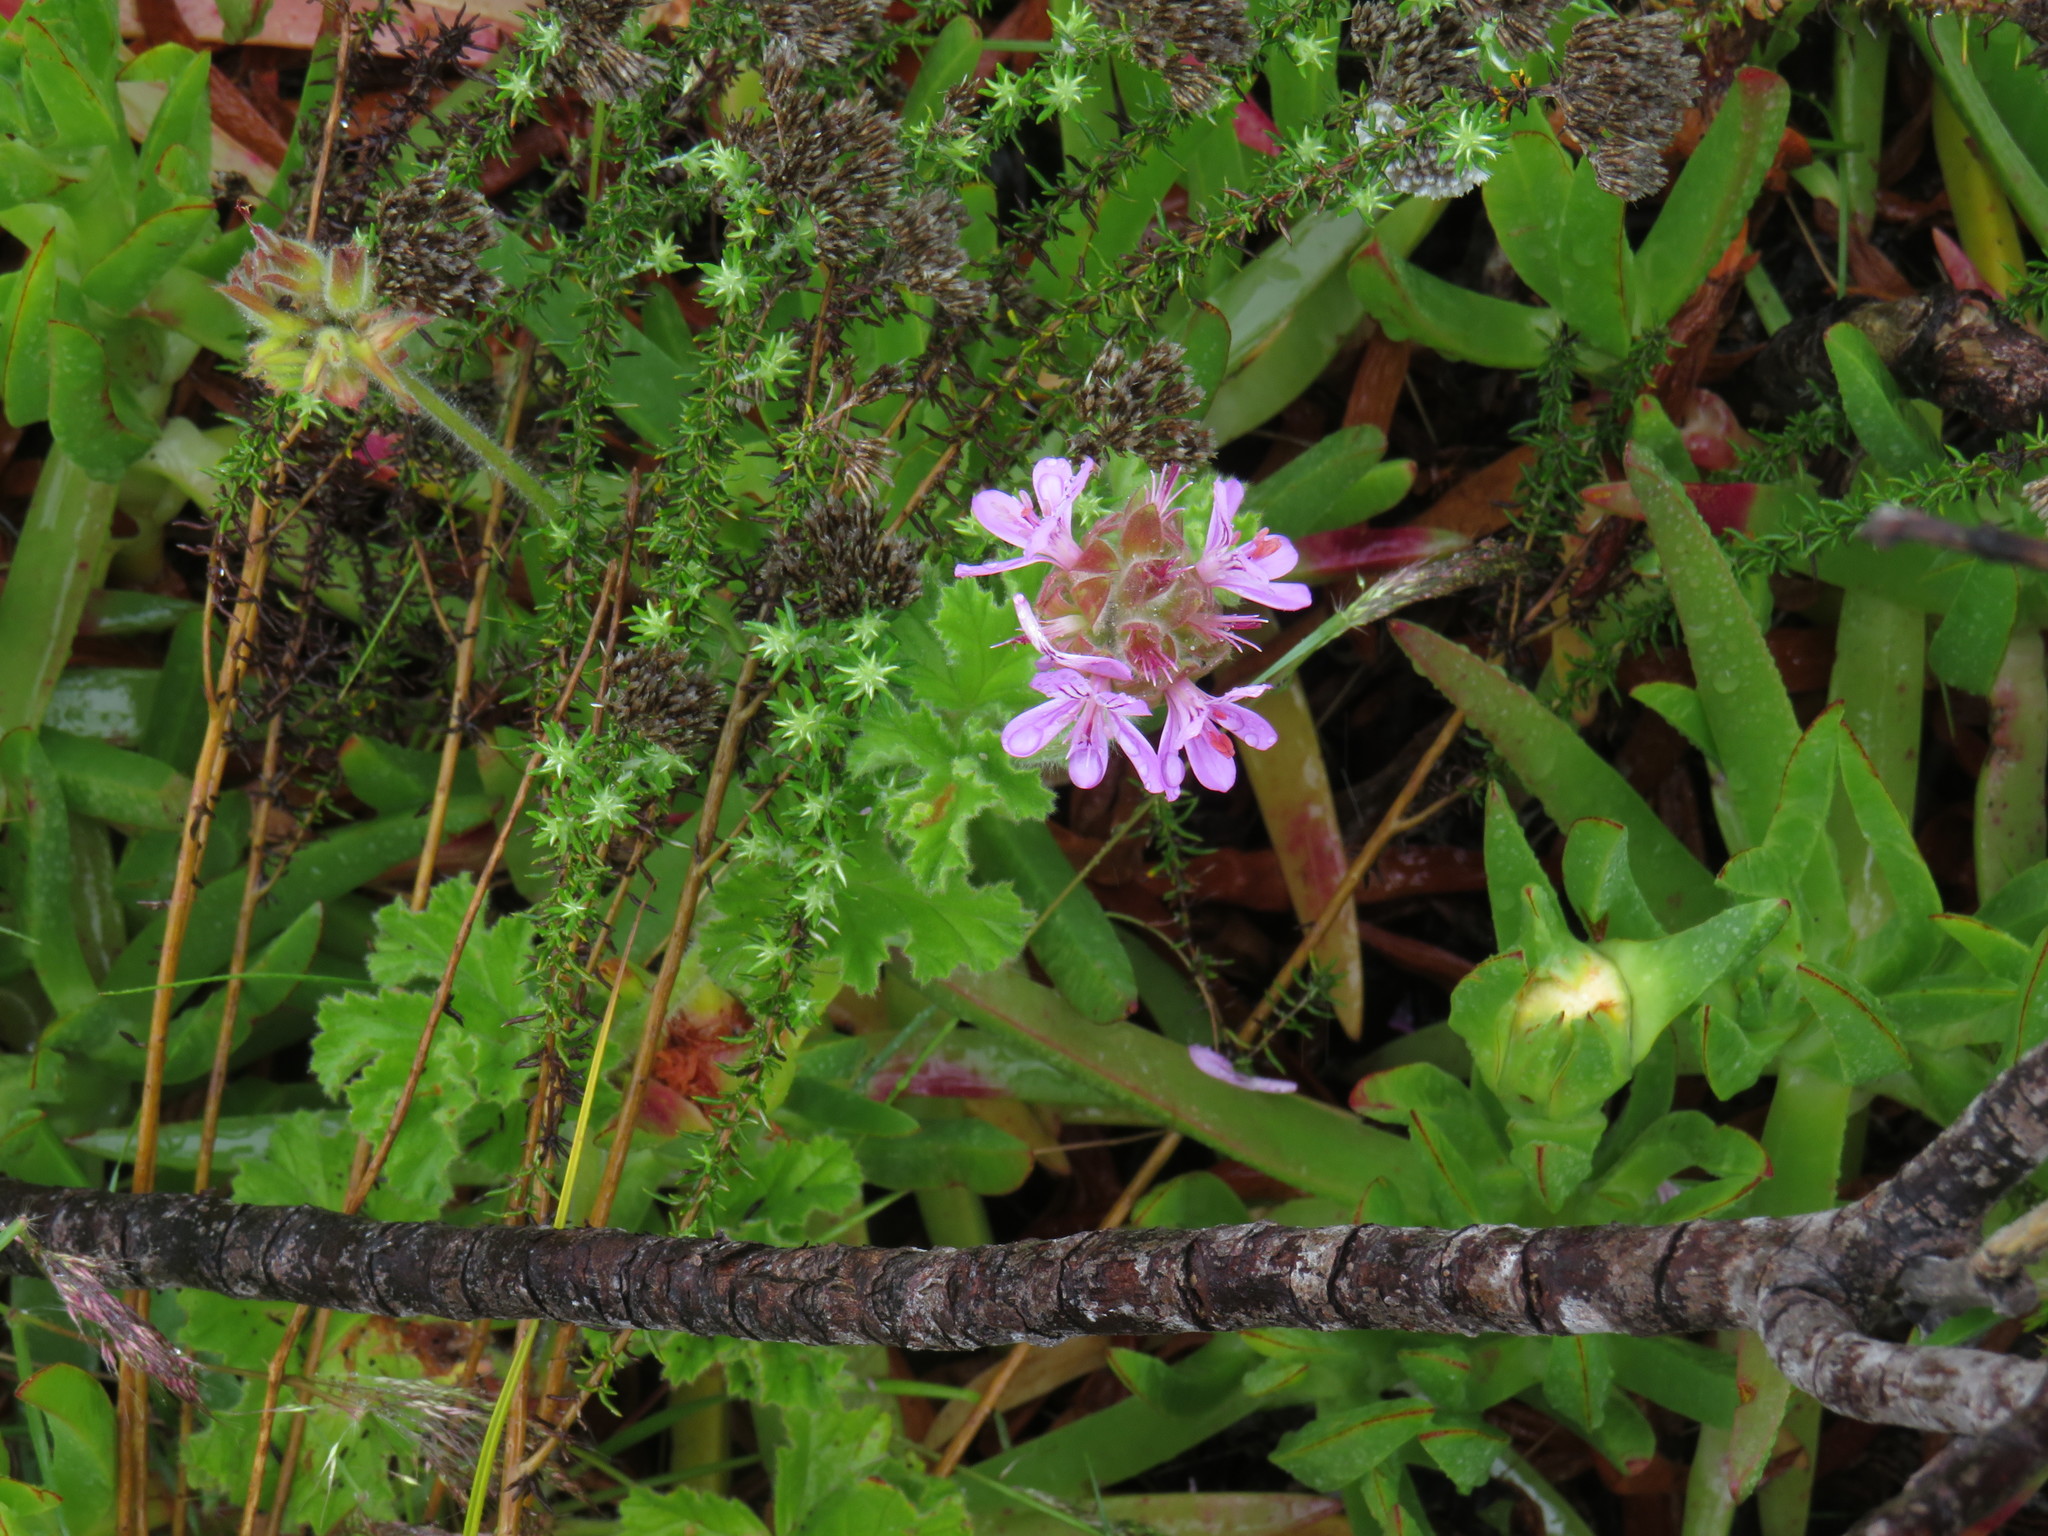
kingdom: Plantae
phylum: Tracheophyta
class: Magnoliopsida
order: Geraniales
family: Geraniaceae
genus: Pelargonium
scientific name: Pelargonium capitatum
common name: Rose scented geranium
